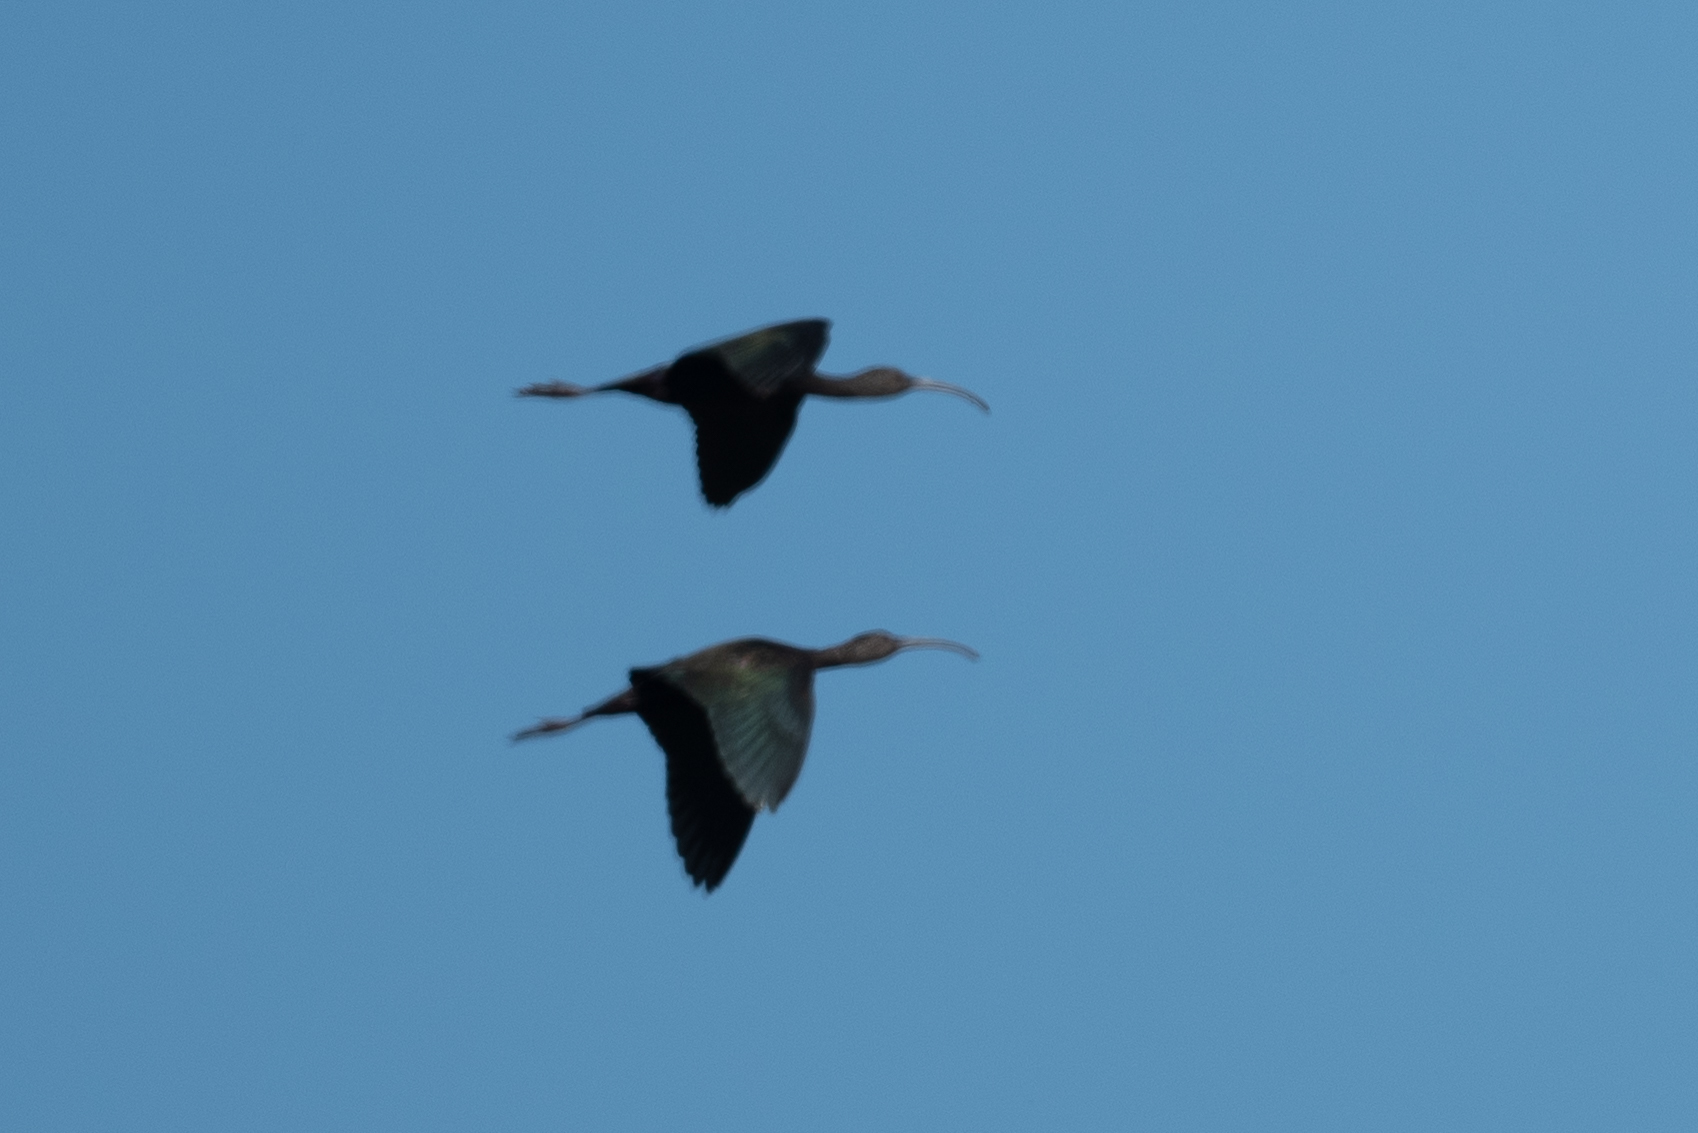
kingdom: Animalia
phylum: Chordata
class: Aves
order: Pelecaniformes
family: Threskiornithidae
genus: Plegadis
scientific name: Plegadis chihi
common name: White-faced ibis
